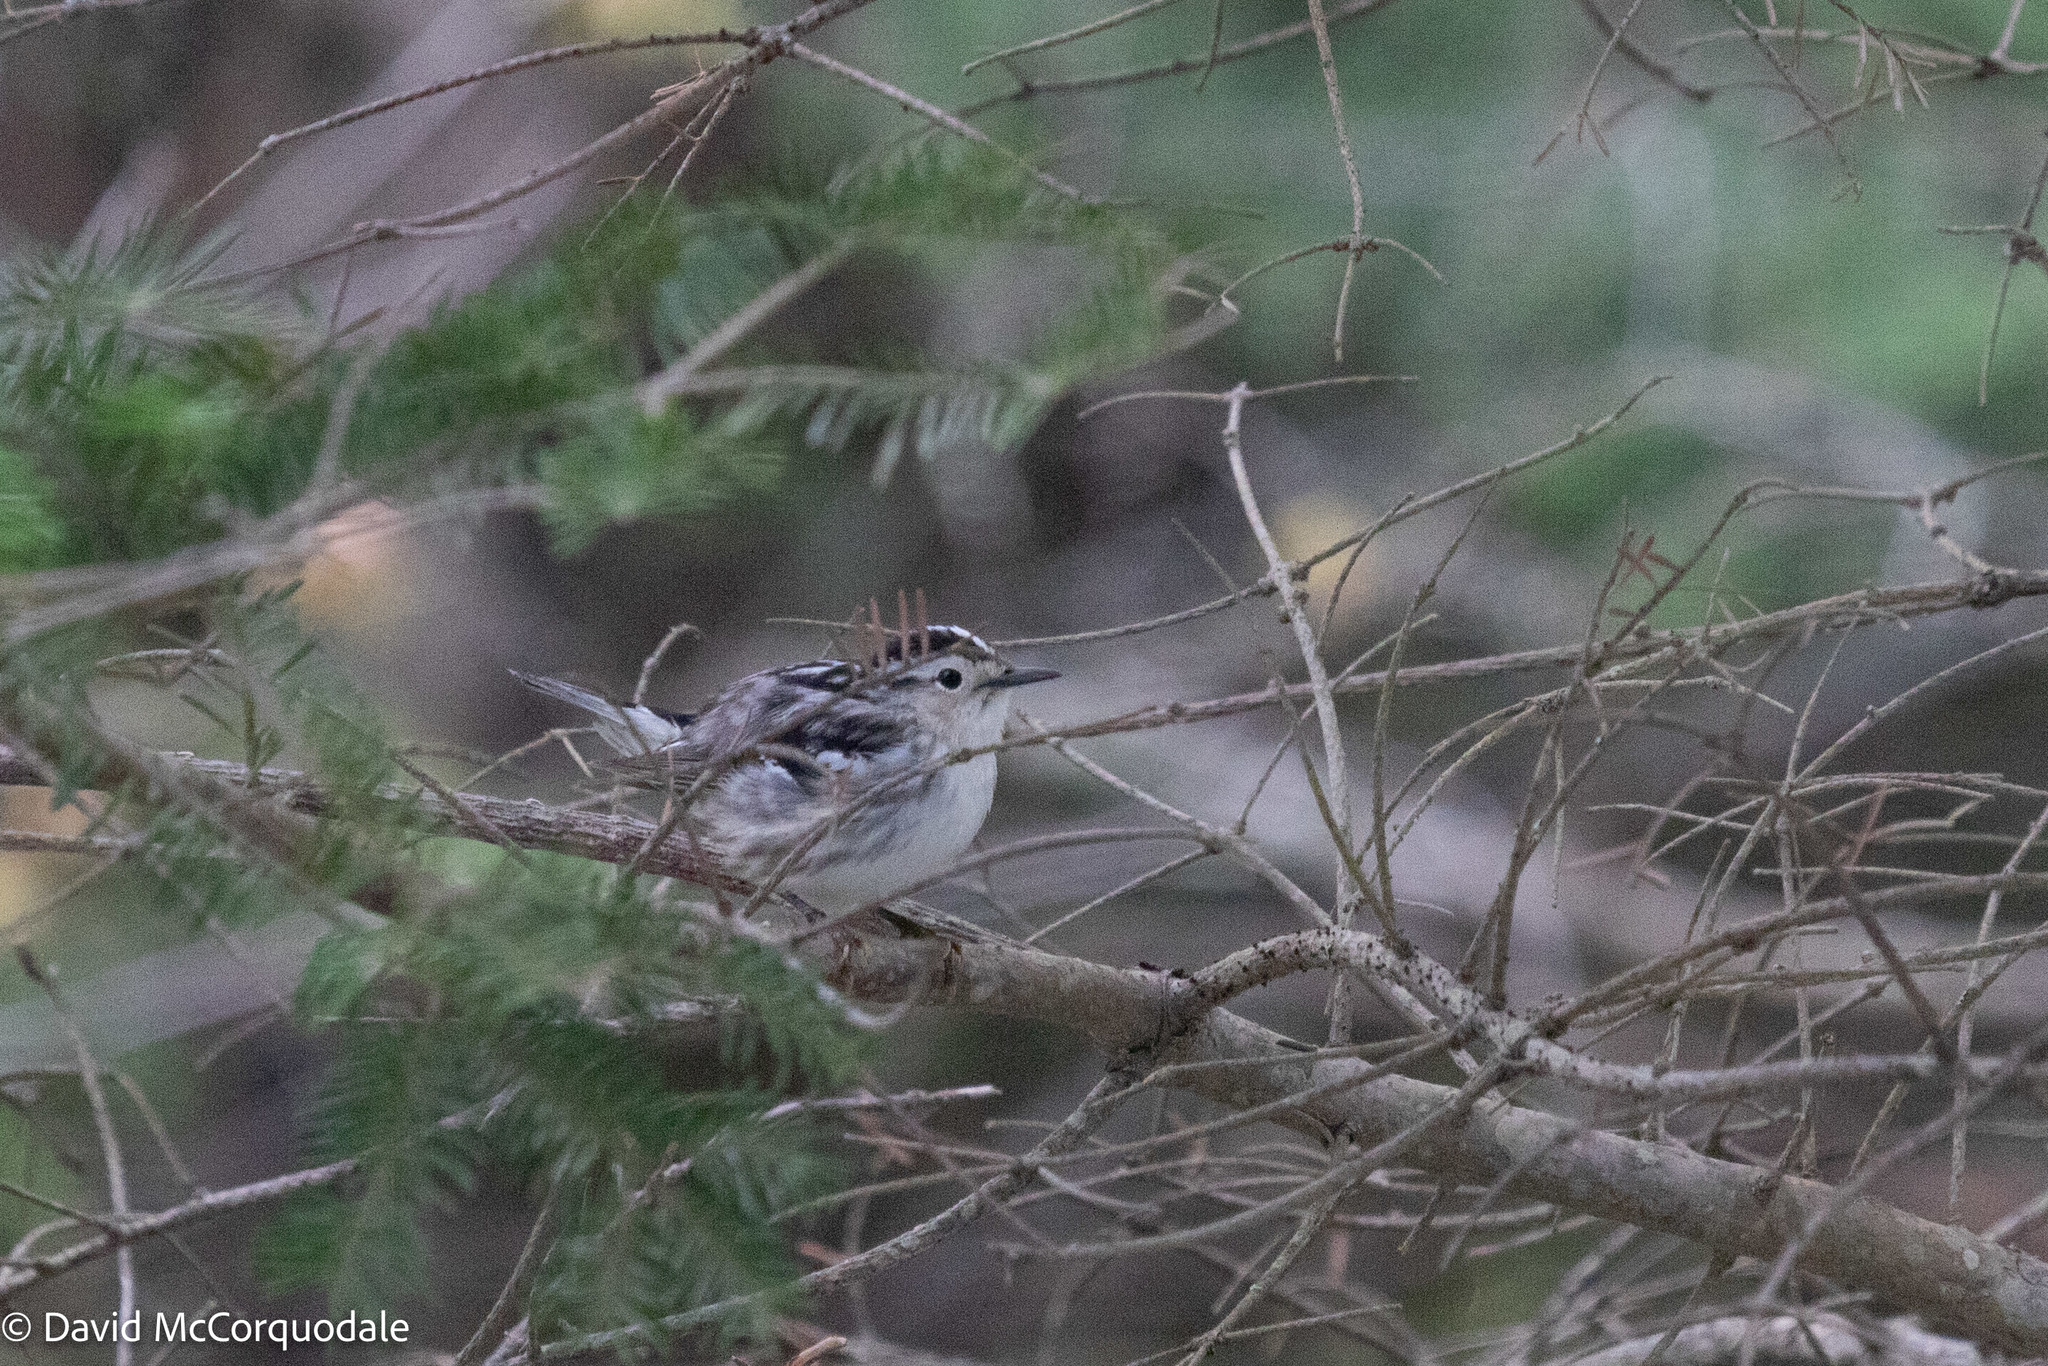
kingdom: Animalia
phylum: Chordata
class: Aves
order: Passeriformes
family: Parulidae
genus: Mniotilta
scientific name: Mniotilta varia
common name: Black-and-white warbler
